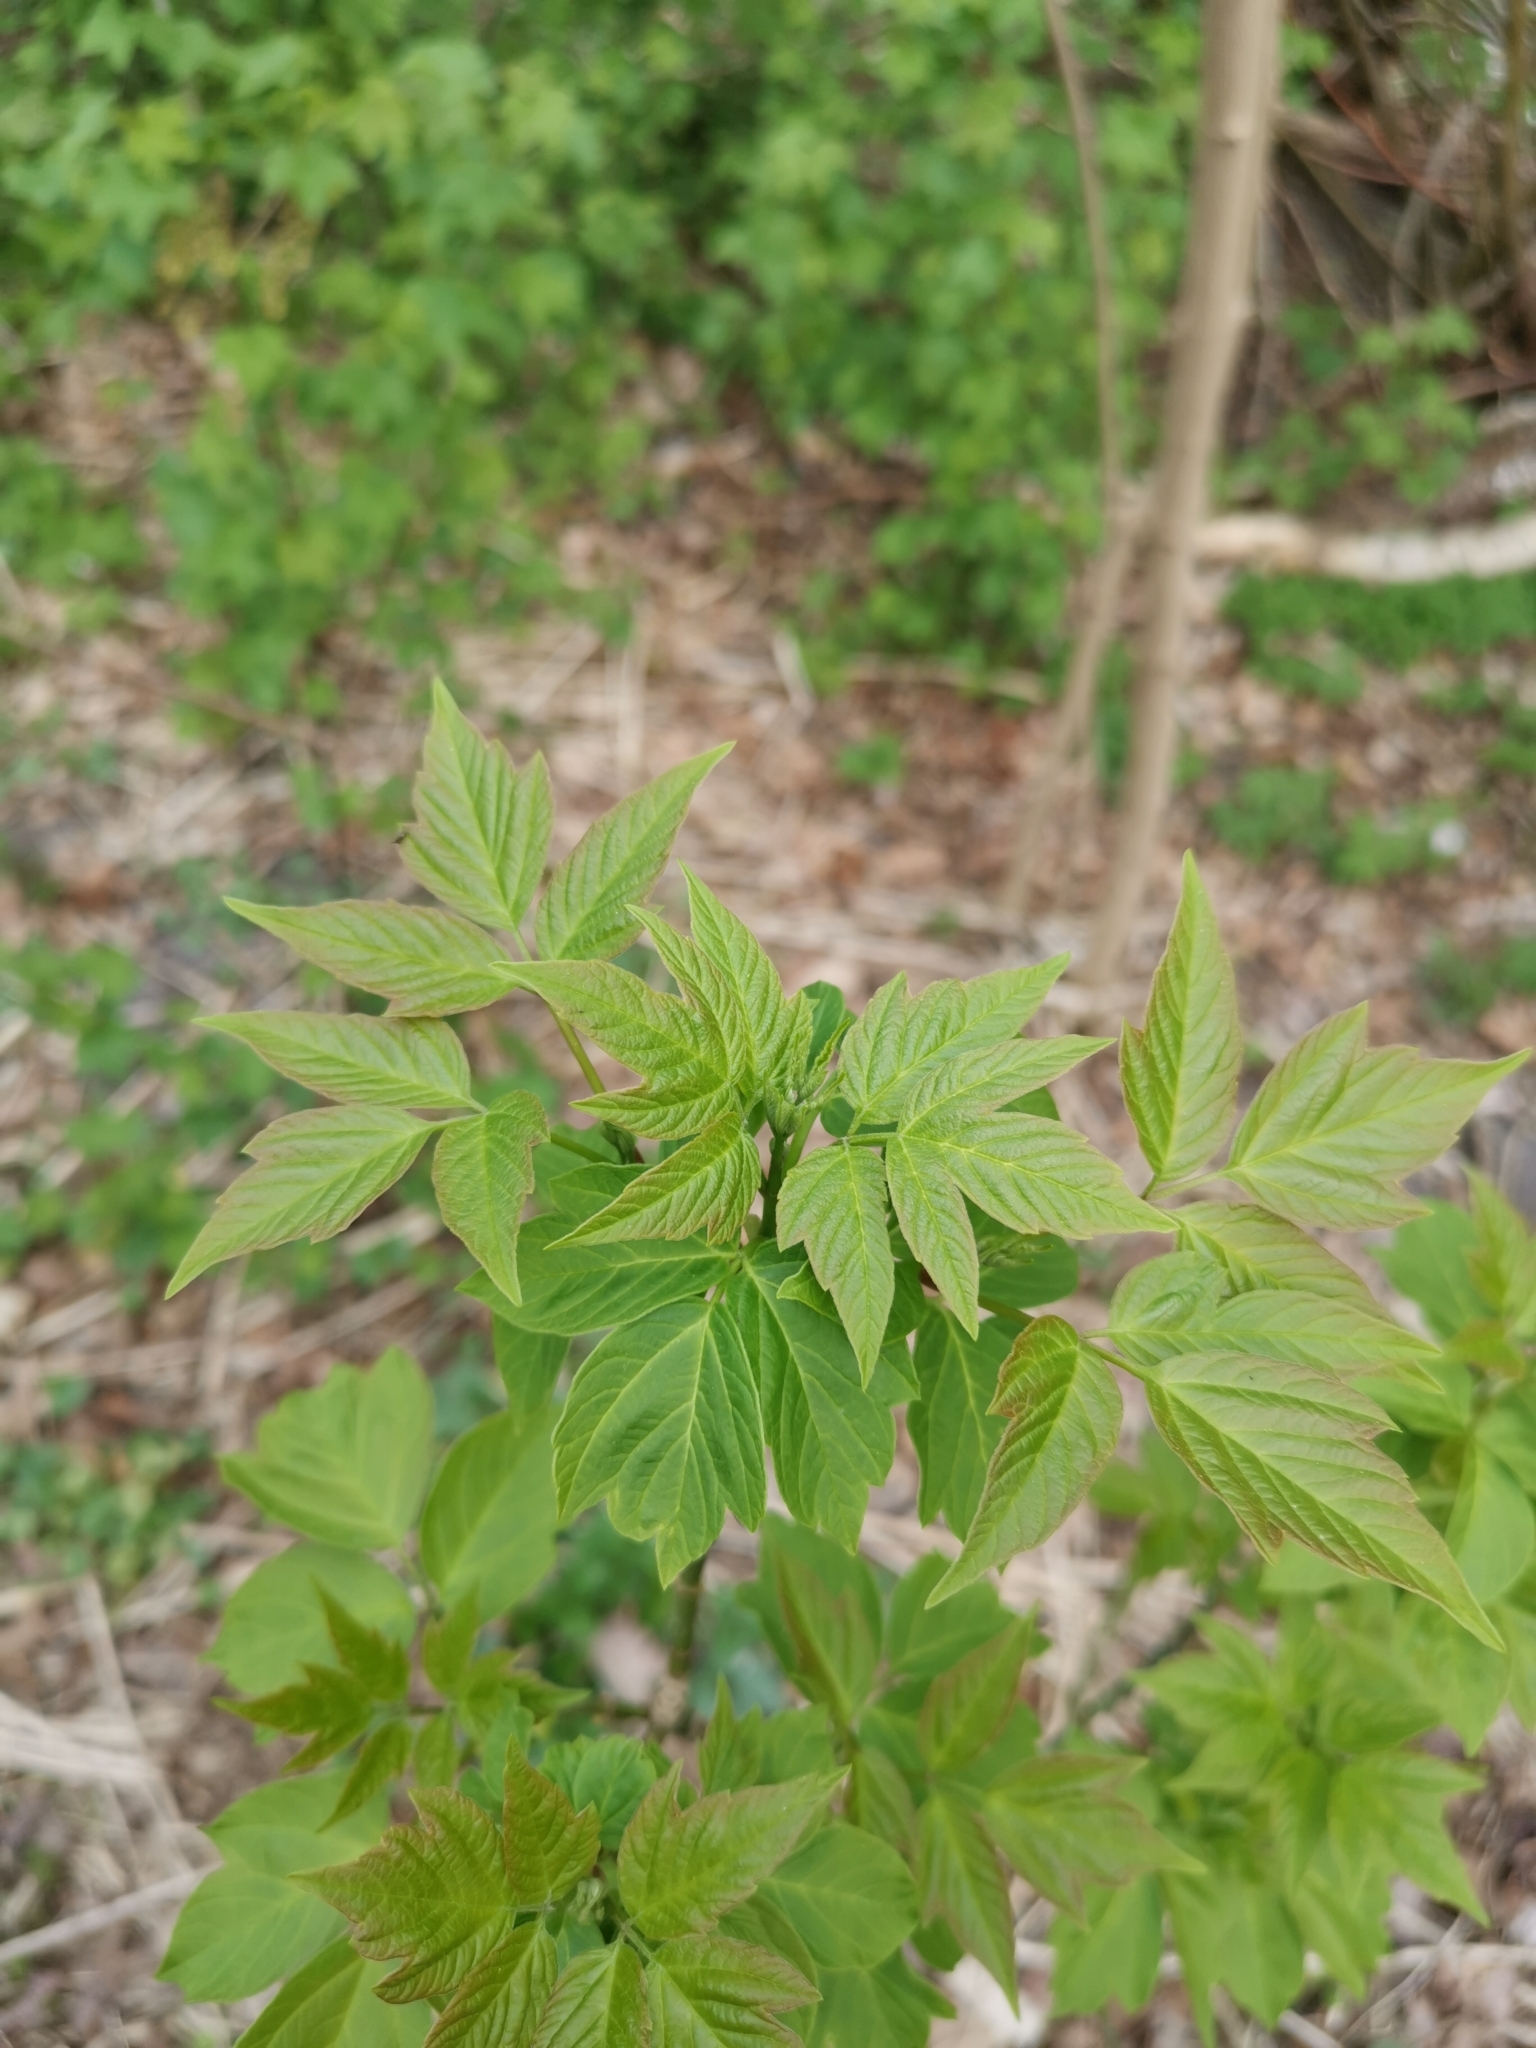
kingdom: Plantae
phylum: Tracheophyta
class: Magnoliopsida
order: Sapindales
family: Sapindaceae
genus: Acer
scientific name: Acer negundo
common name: Ashleaf maple
